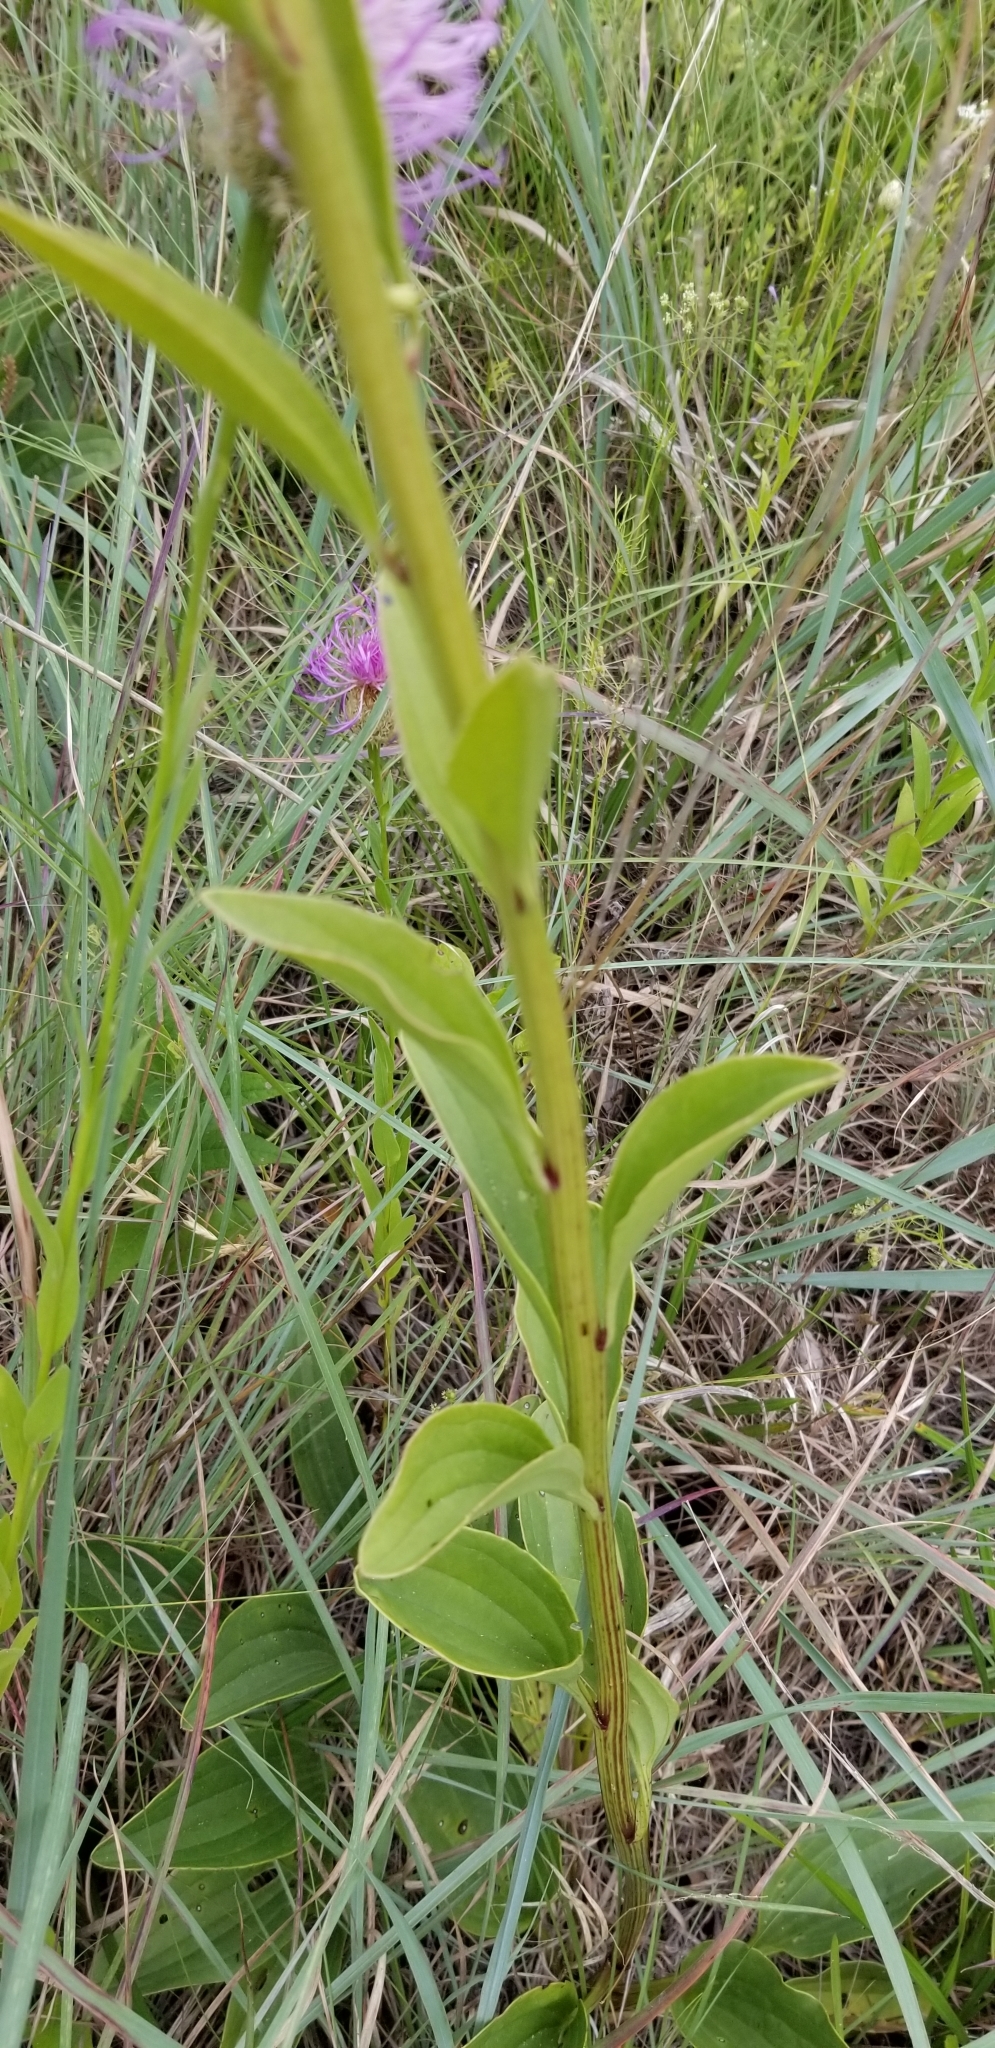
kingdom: Plantae
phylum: Tracheophyta
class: Magnoliopsida
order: Asterales
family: Asteraceae
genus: Arnoglossum
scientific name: Arnoglossum plantagineum
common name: Groove-stemmed indian-plantain
